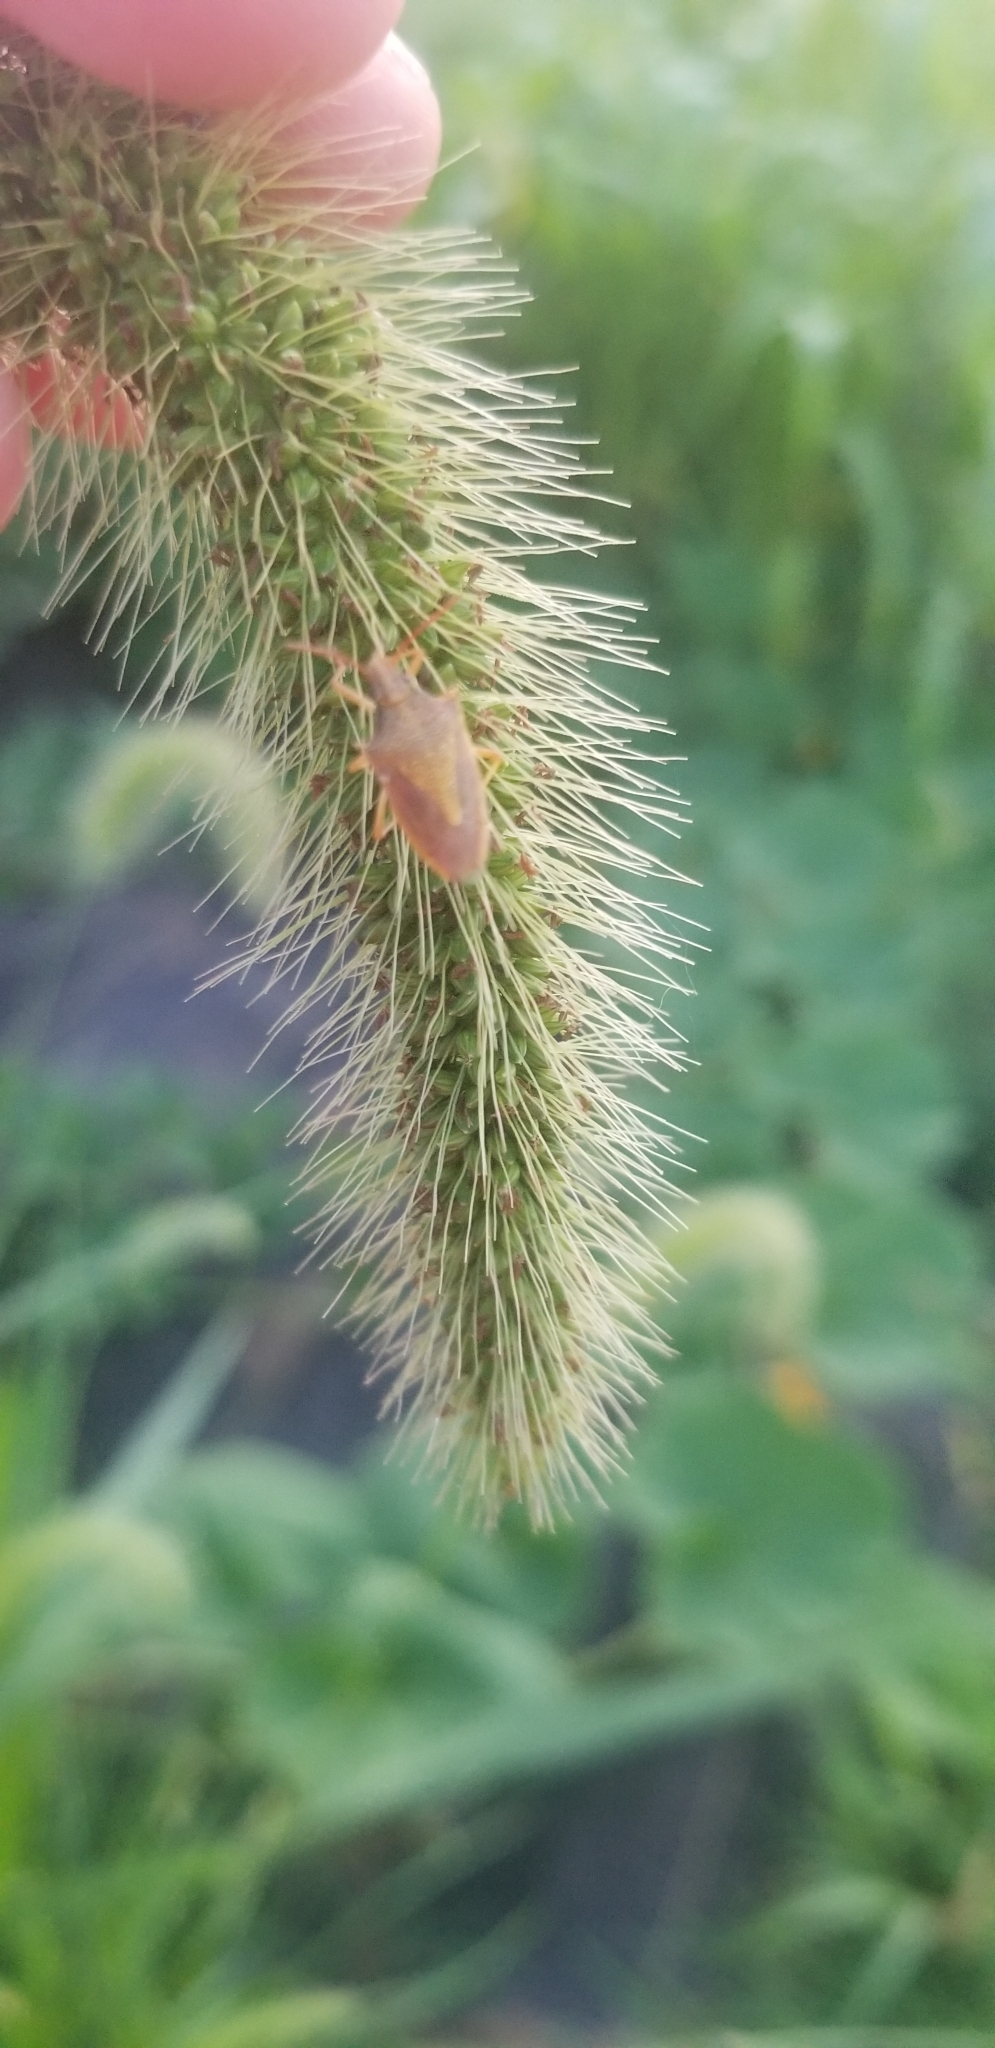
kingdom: Animalia
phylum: Arthropoda
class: Insecta
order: Hemiptera
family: Pentatomidae
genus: Oebalus
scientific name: Oebalus pugnax
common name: Rice stink bug
